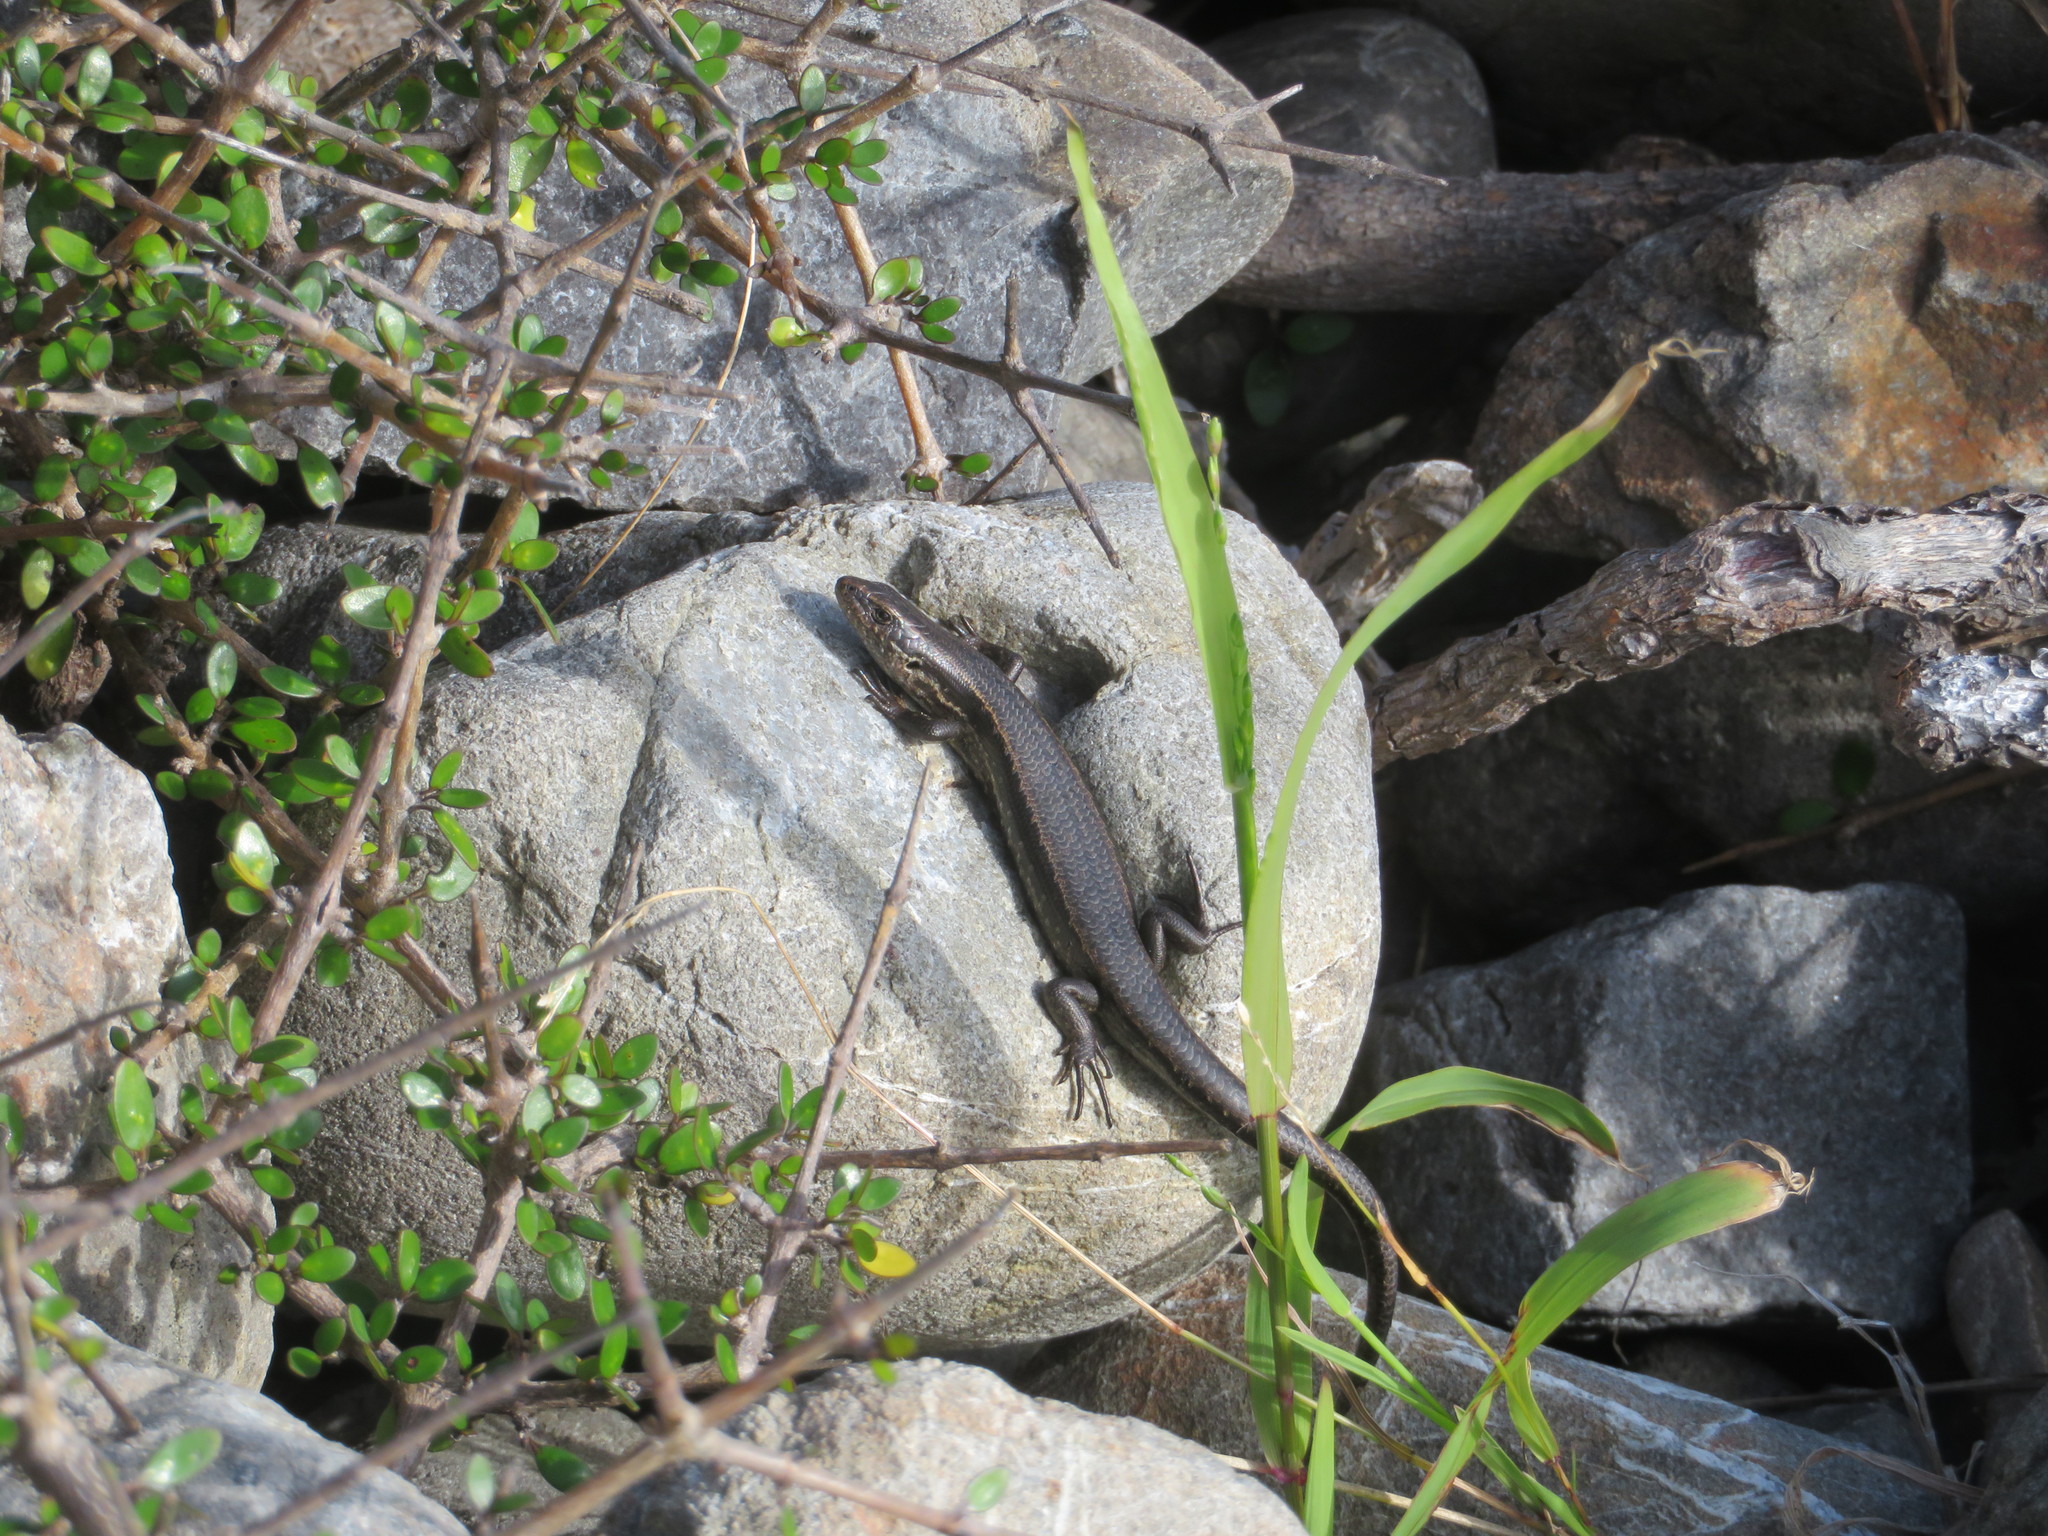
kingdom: Animalia
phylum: Chordata
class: Squamata
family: Scincidae
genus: Oligosoma
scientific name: Oligosoma polychroma
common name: Common new zealand skink
